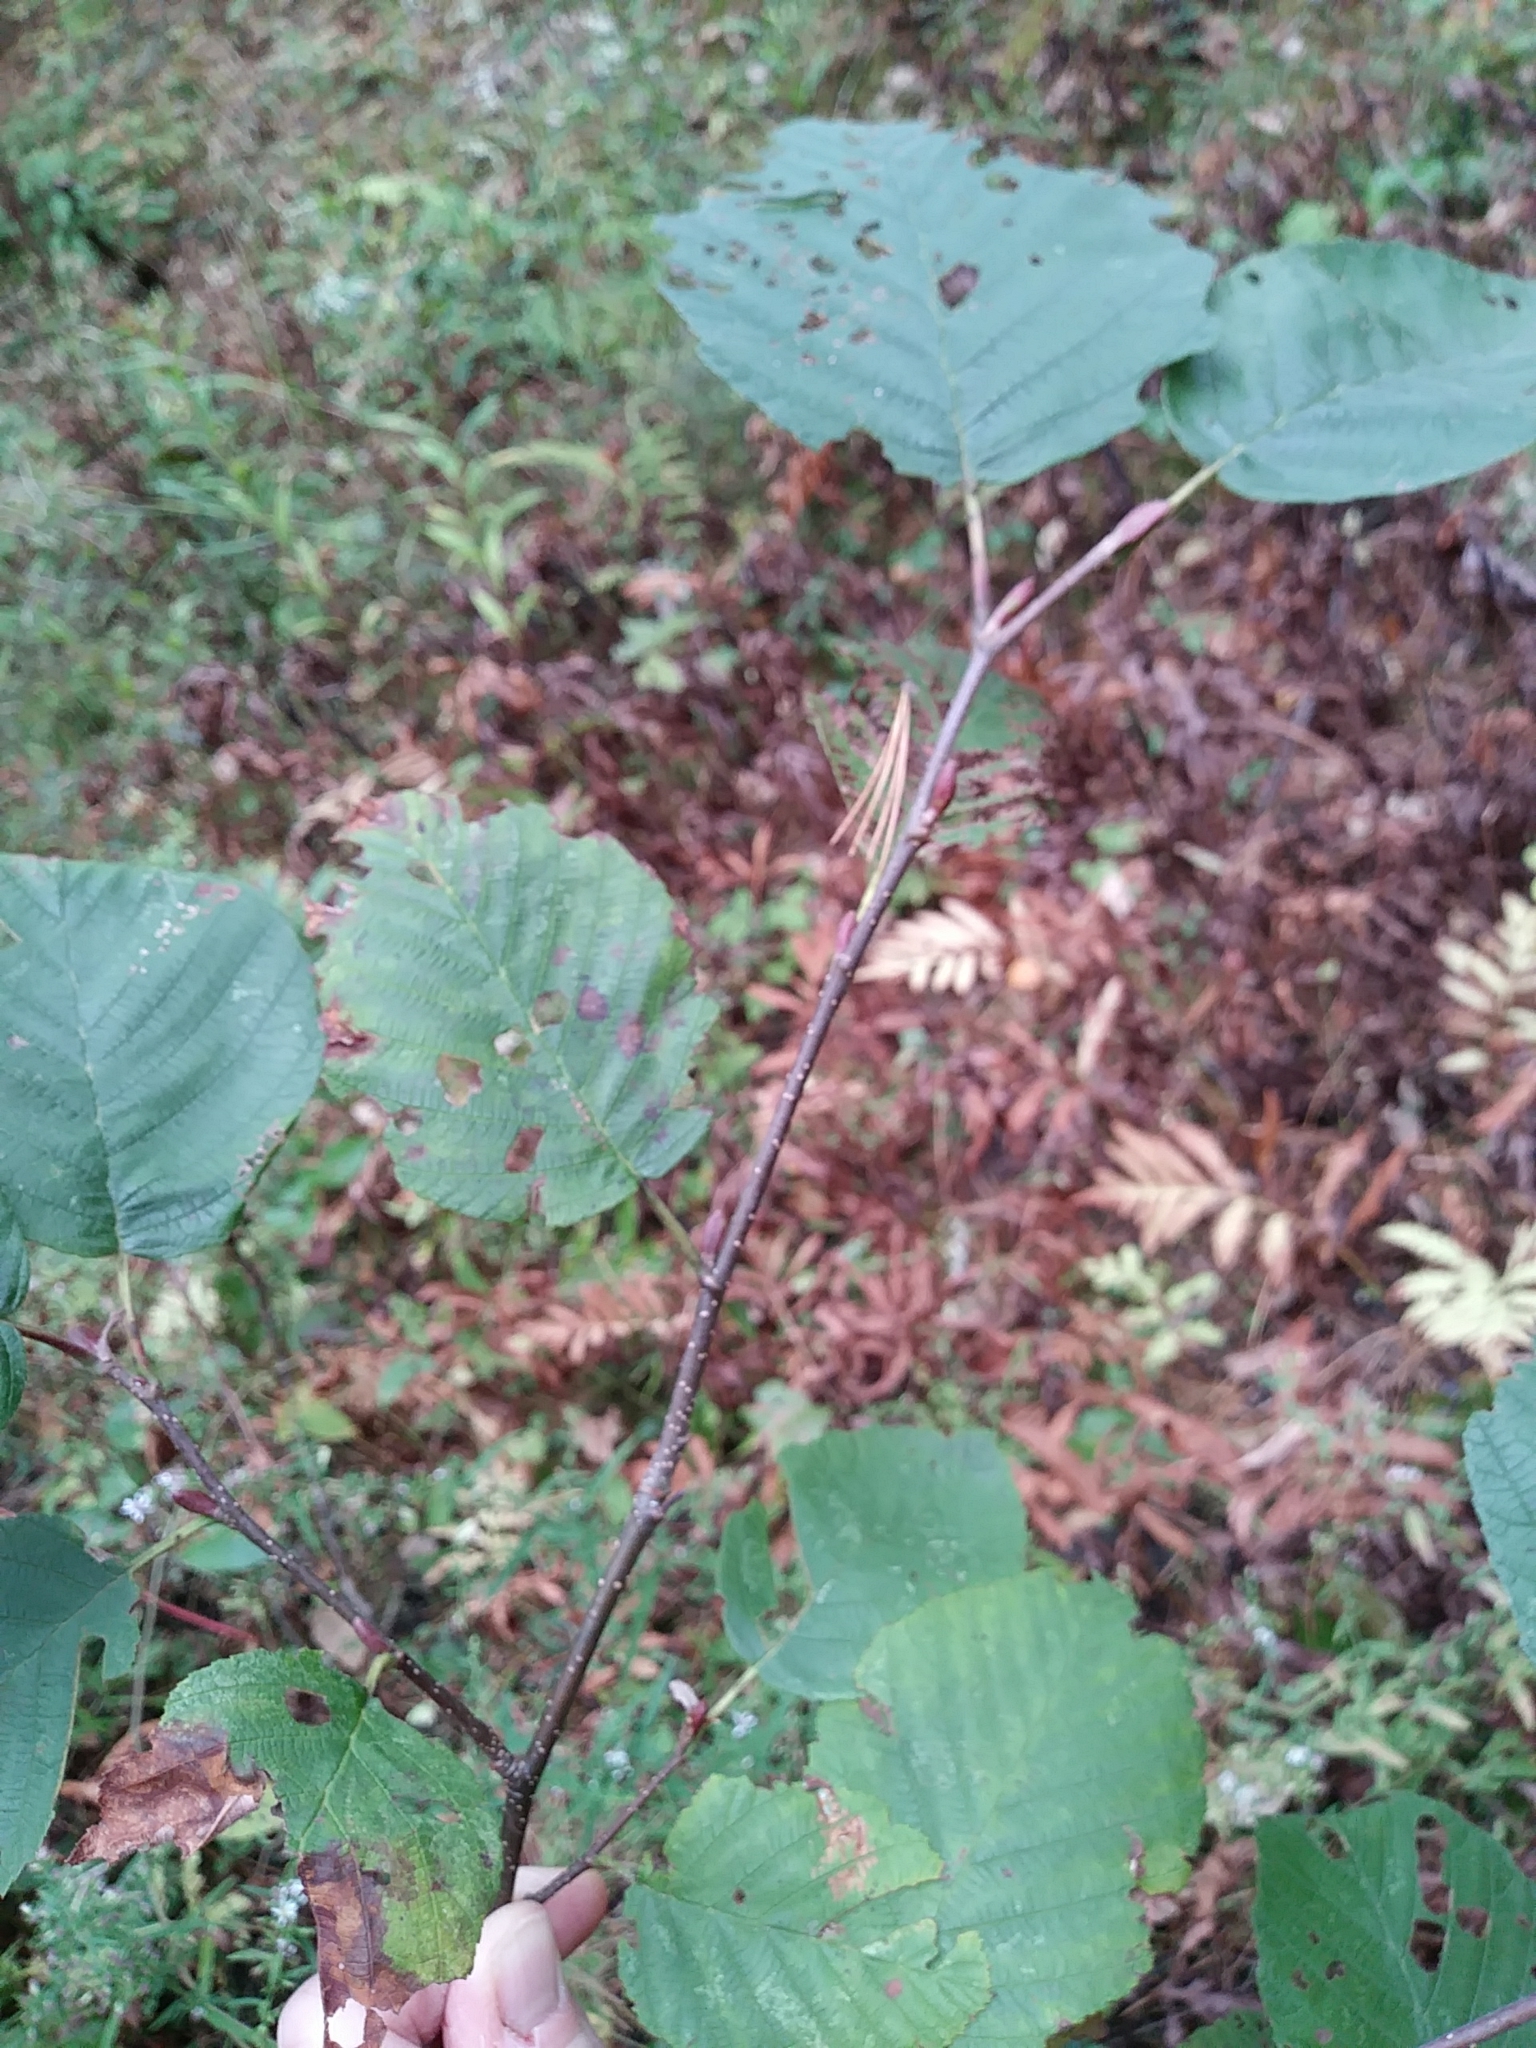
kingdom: Plantae
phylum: Tracheophyta
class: Magnoliopsida
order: Fagales
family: Betulaceae
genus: Alnus
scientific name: Alnus incana
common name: Grey alder
